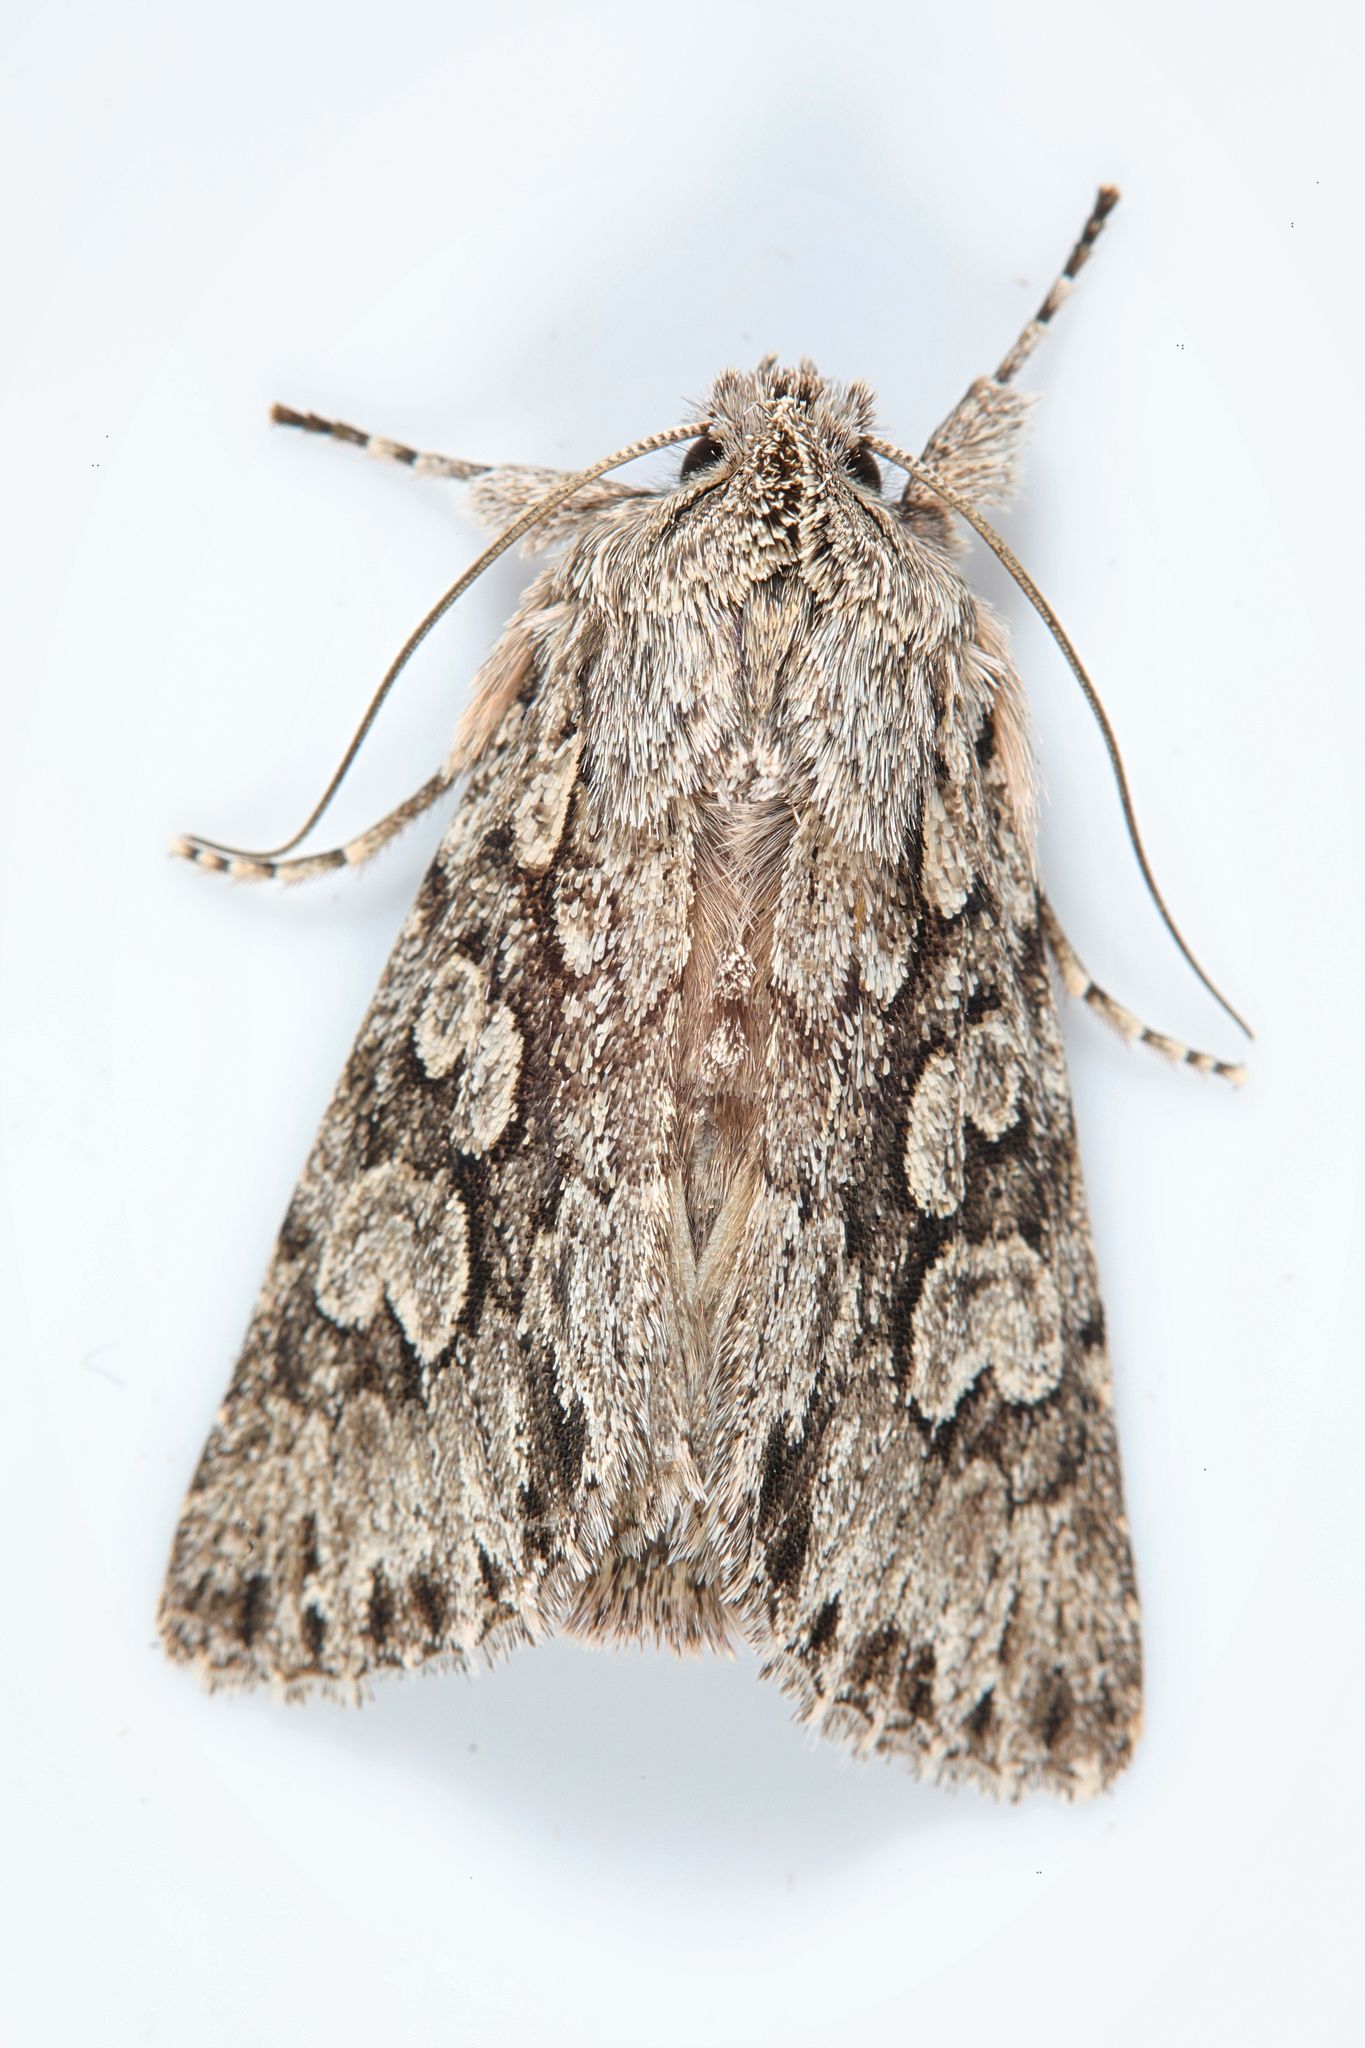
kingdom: Animalia
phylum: Arthropoda
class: Insecta
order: Lepidoptera
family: Noctuidae
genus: Xylocampa
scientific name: Xylocampa areola
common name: Early grey
